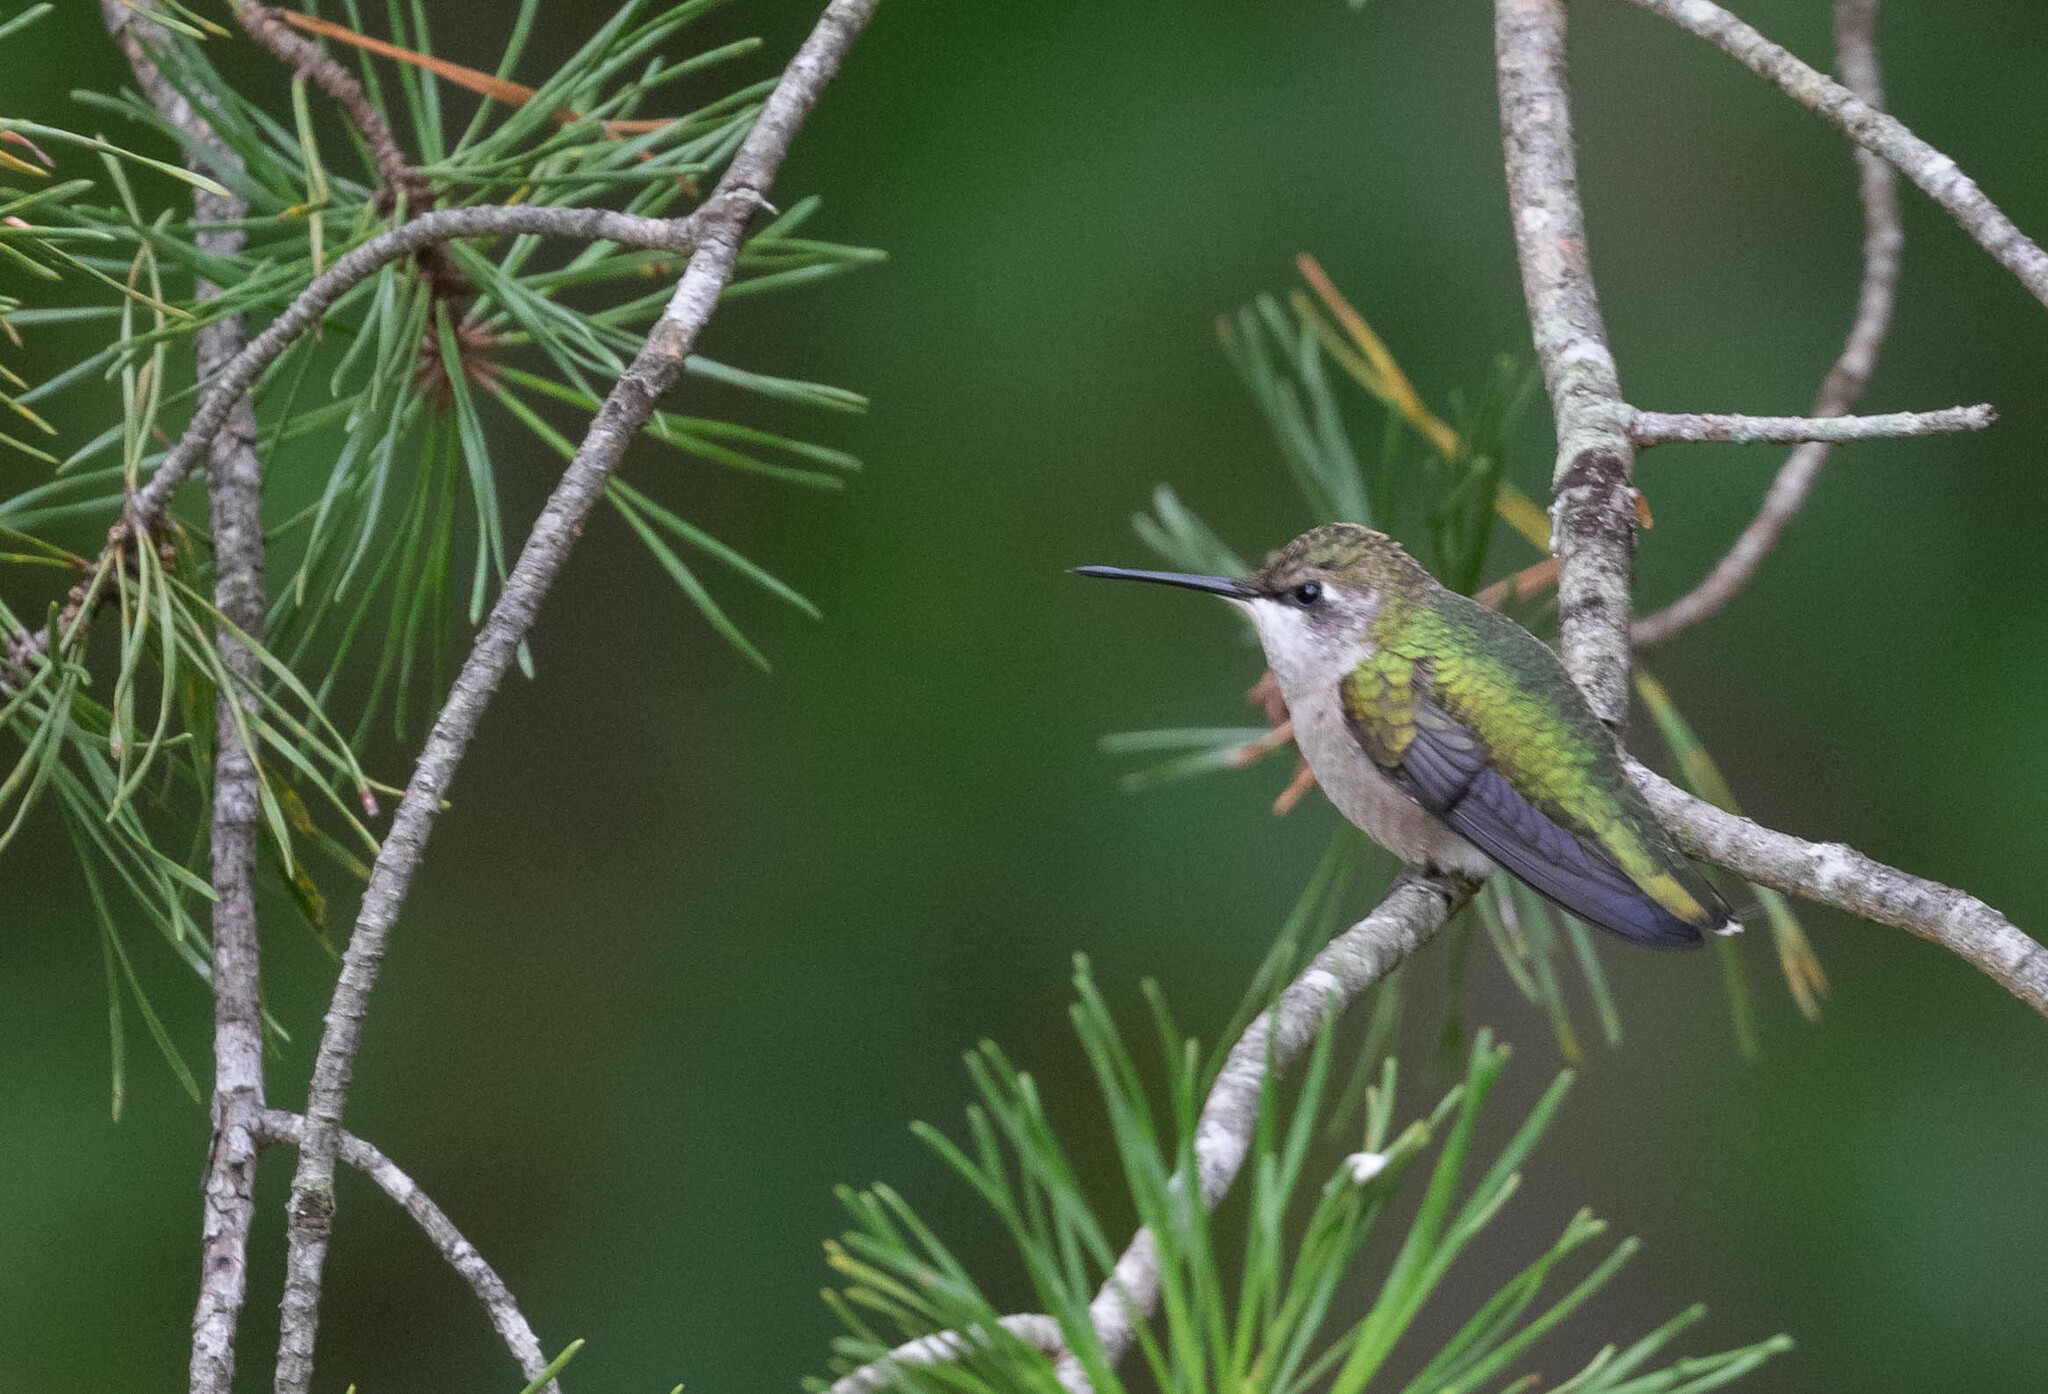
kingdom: Animalia
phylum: Chordata
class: Aves
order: Apodiformes
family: Trochilidae
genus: Archilochus
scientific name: Archilochus colubris
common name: Ruby-throated hummingbird
